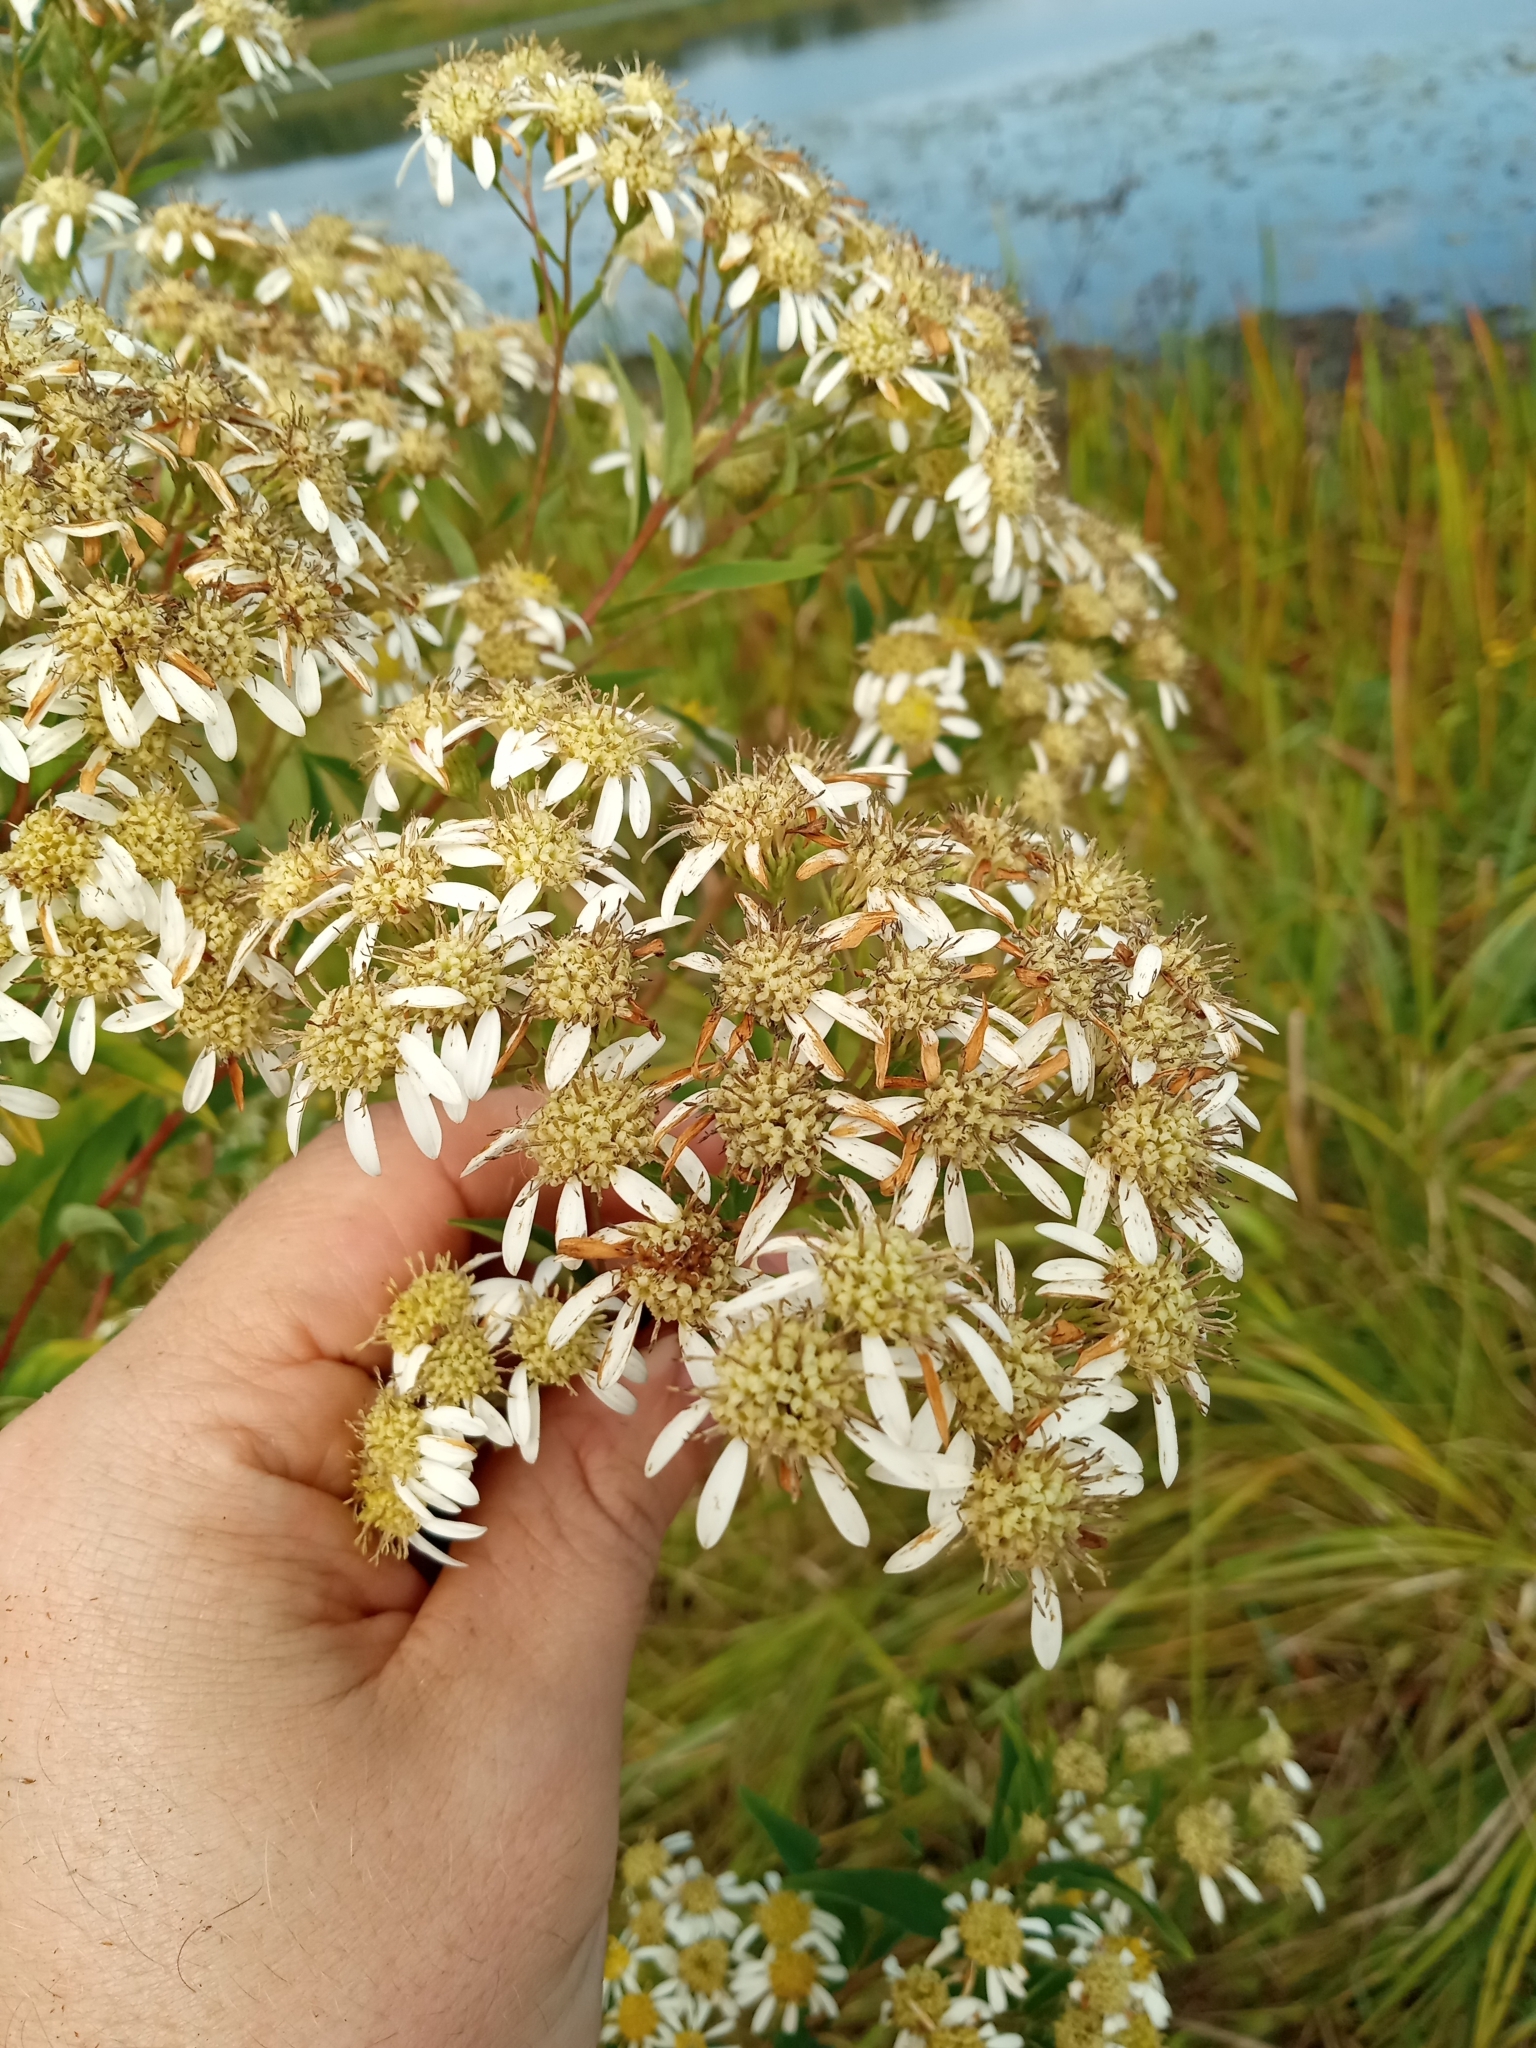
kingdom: Plantae
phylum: Tracheophyta
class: Magnoliopsida
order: Asterales
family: Asteraceae
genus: Doellingeria
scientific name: Doellingeria umbellata
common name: Flat-top white aster
